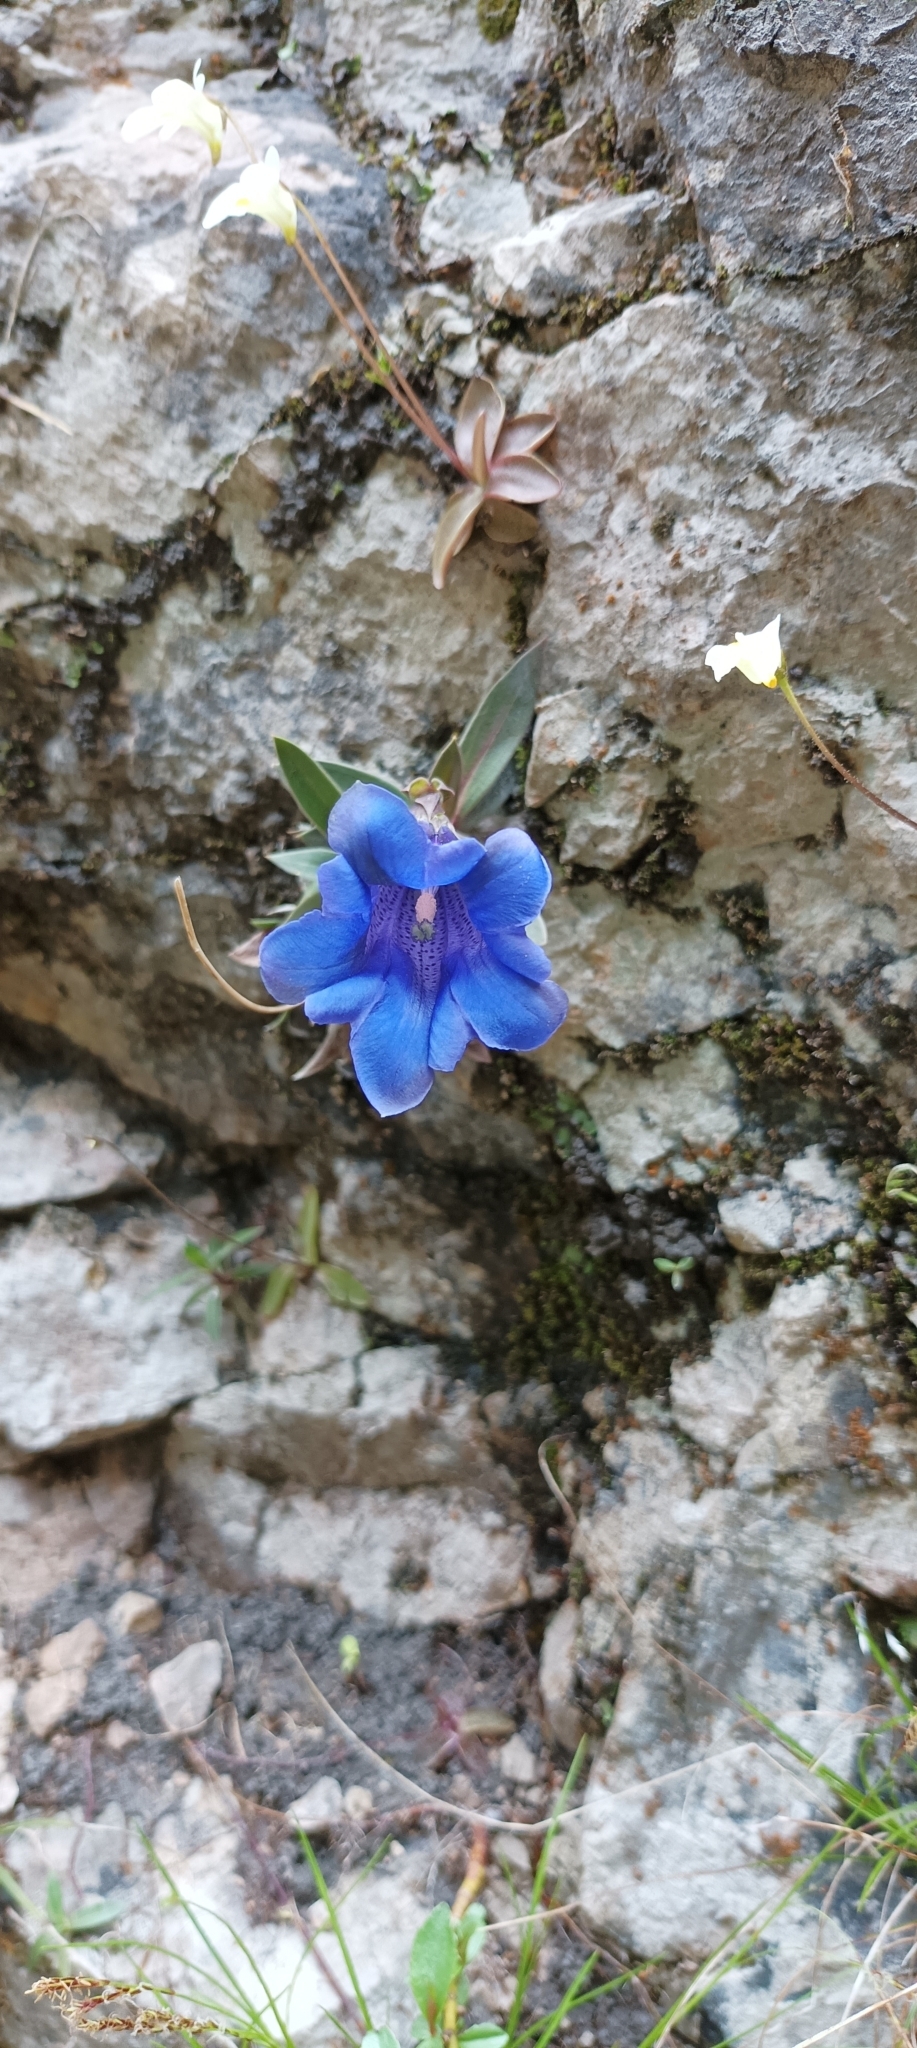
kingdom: Plantae
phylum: Tracheophyta
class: Magnoliopsida
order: Gentianales
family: Gentianaceae
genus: Gentiana
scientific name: Gentiana clusii
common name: Trumpet gentian
